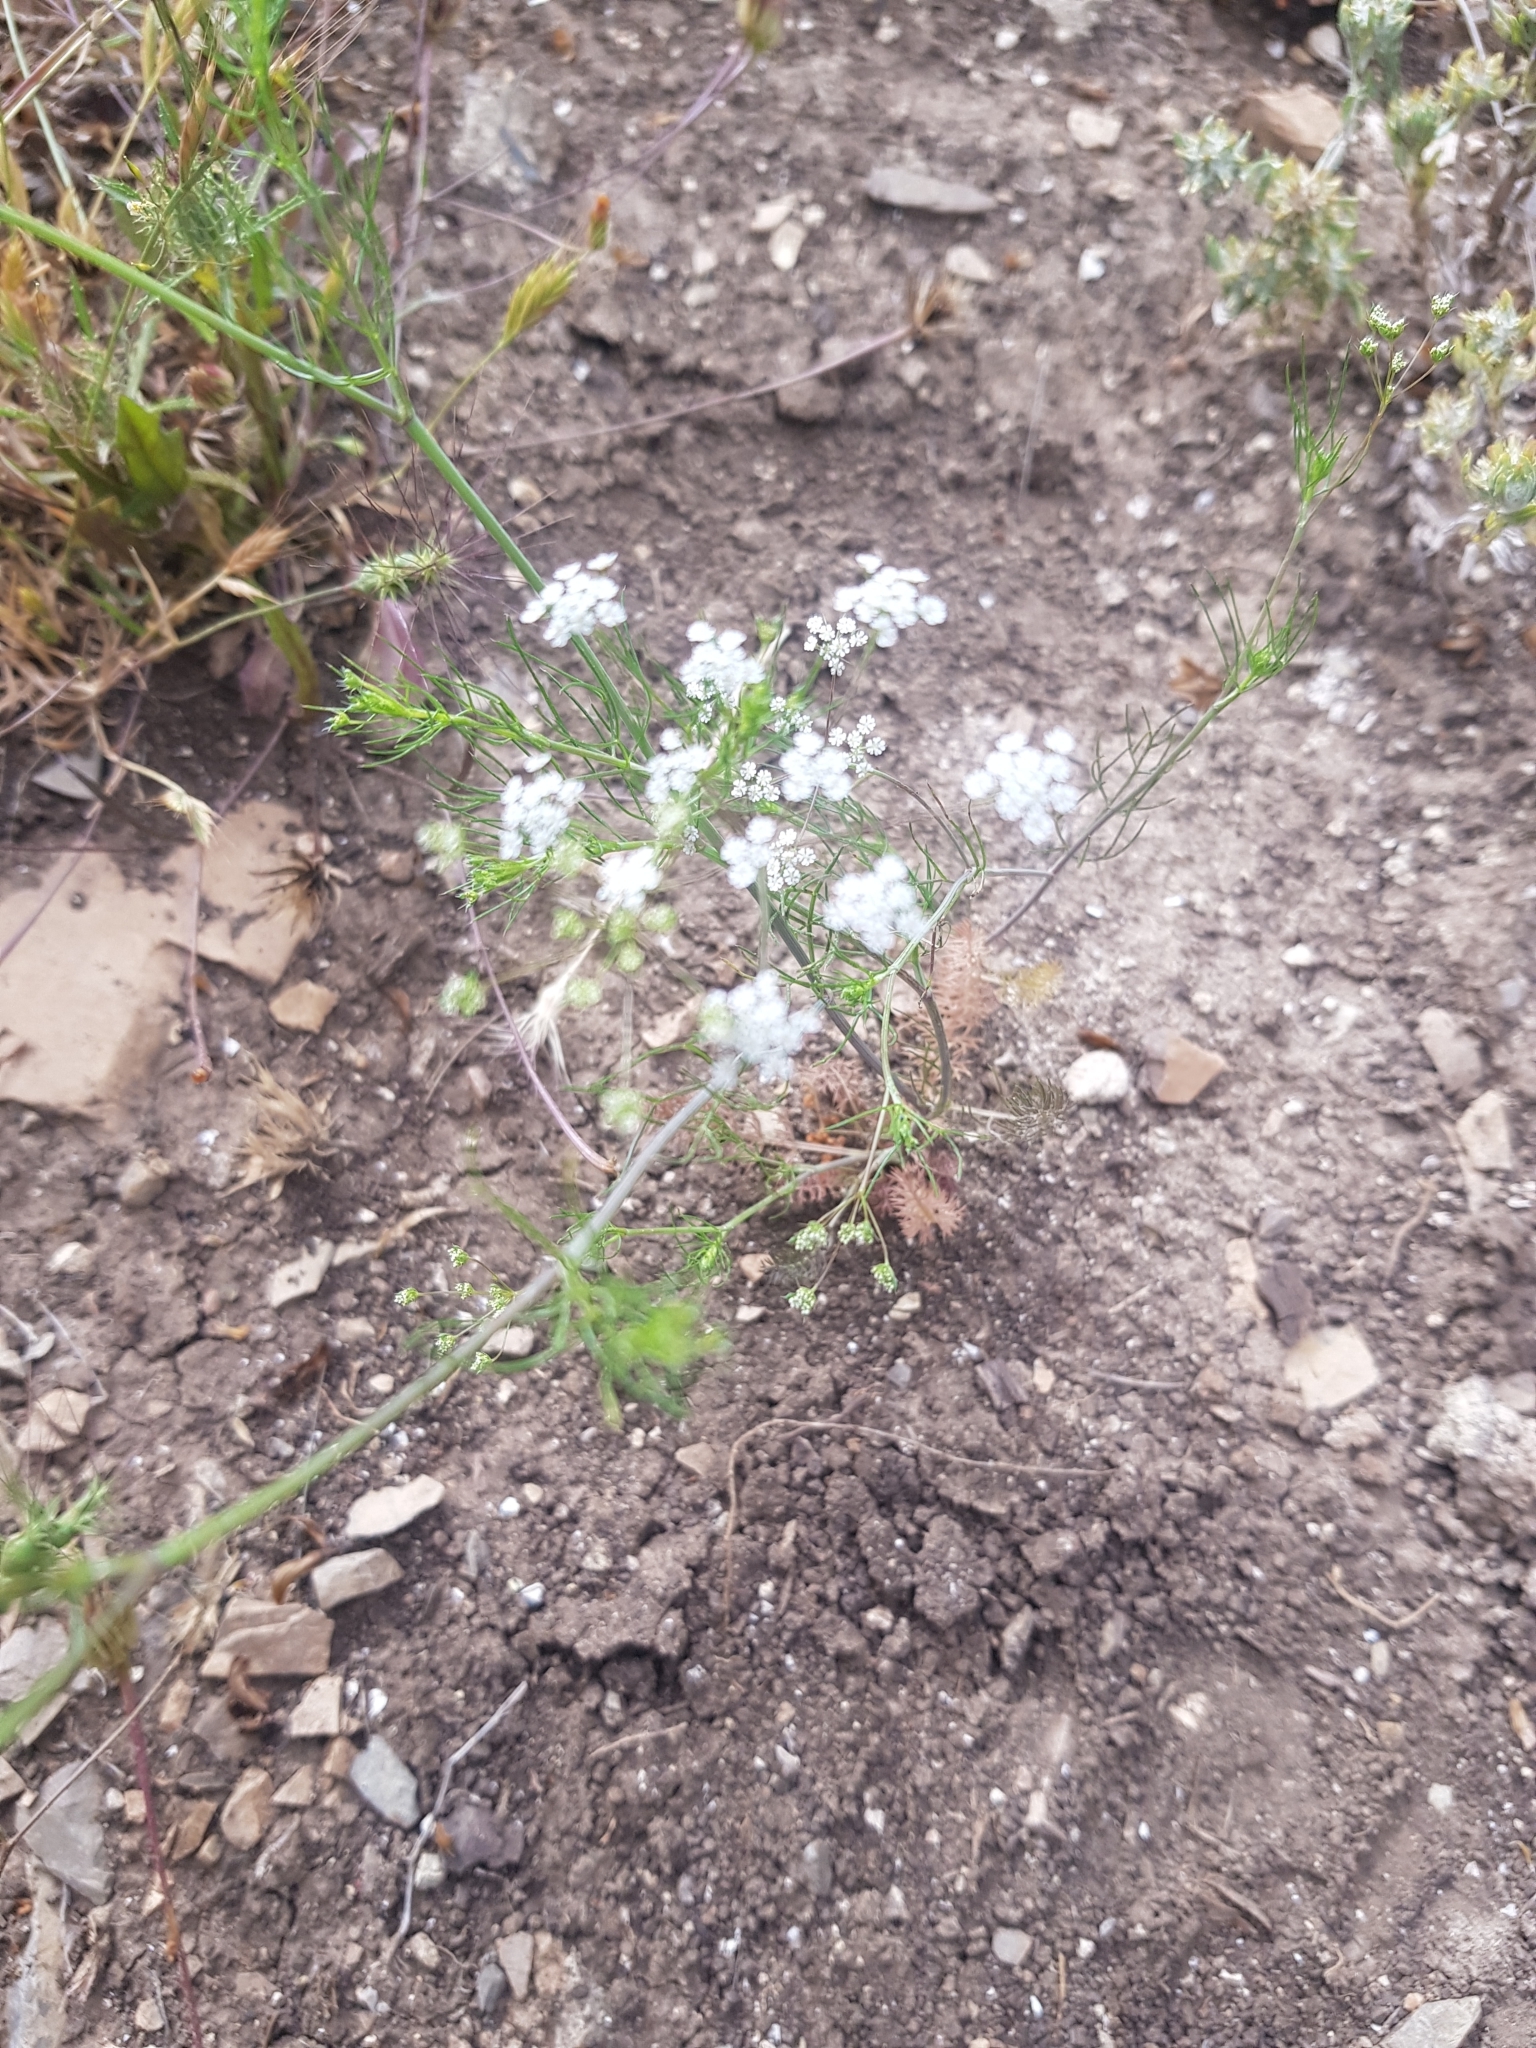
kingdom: Plantae
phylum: Tracheophyta
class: Magnoliopsida
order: Apiales
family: Apiaceae
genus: Ammoides
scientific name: Ammoides pusilla
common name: Cerfolium
